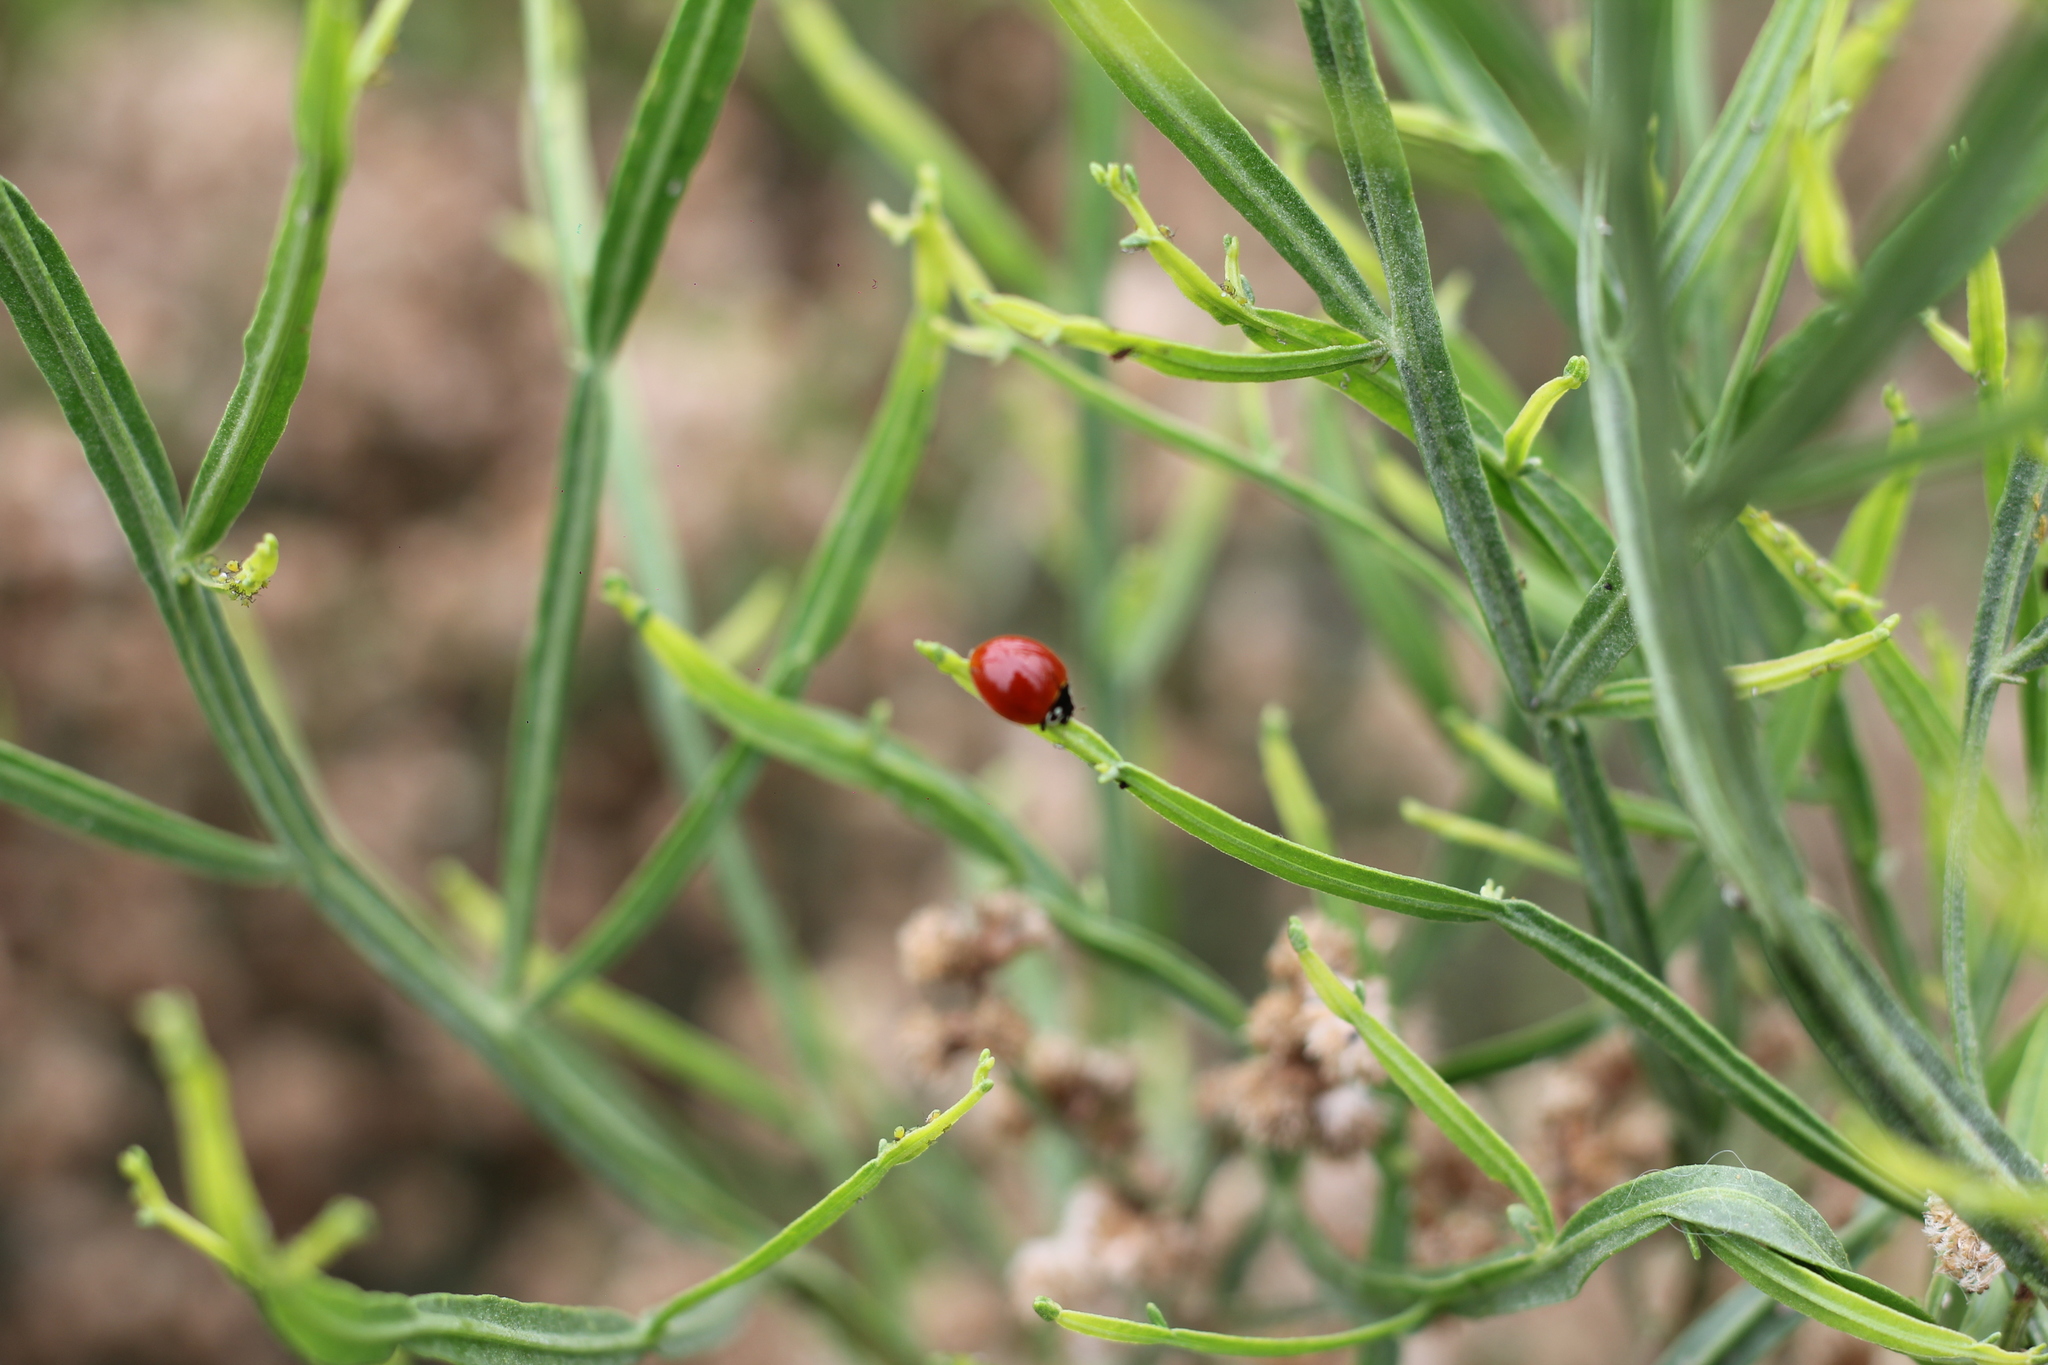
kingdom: Animalia
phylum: Arthropoda
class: Insecta
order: Coleoptera
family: Coccinellidae
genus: Cycloneda
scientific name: Cycloneda sanguinea
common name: Ladybird beetle
